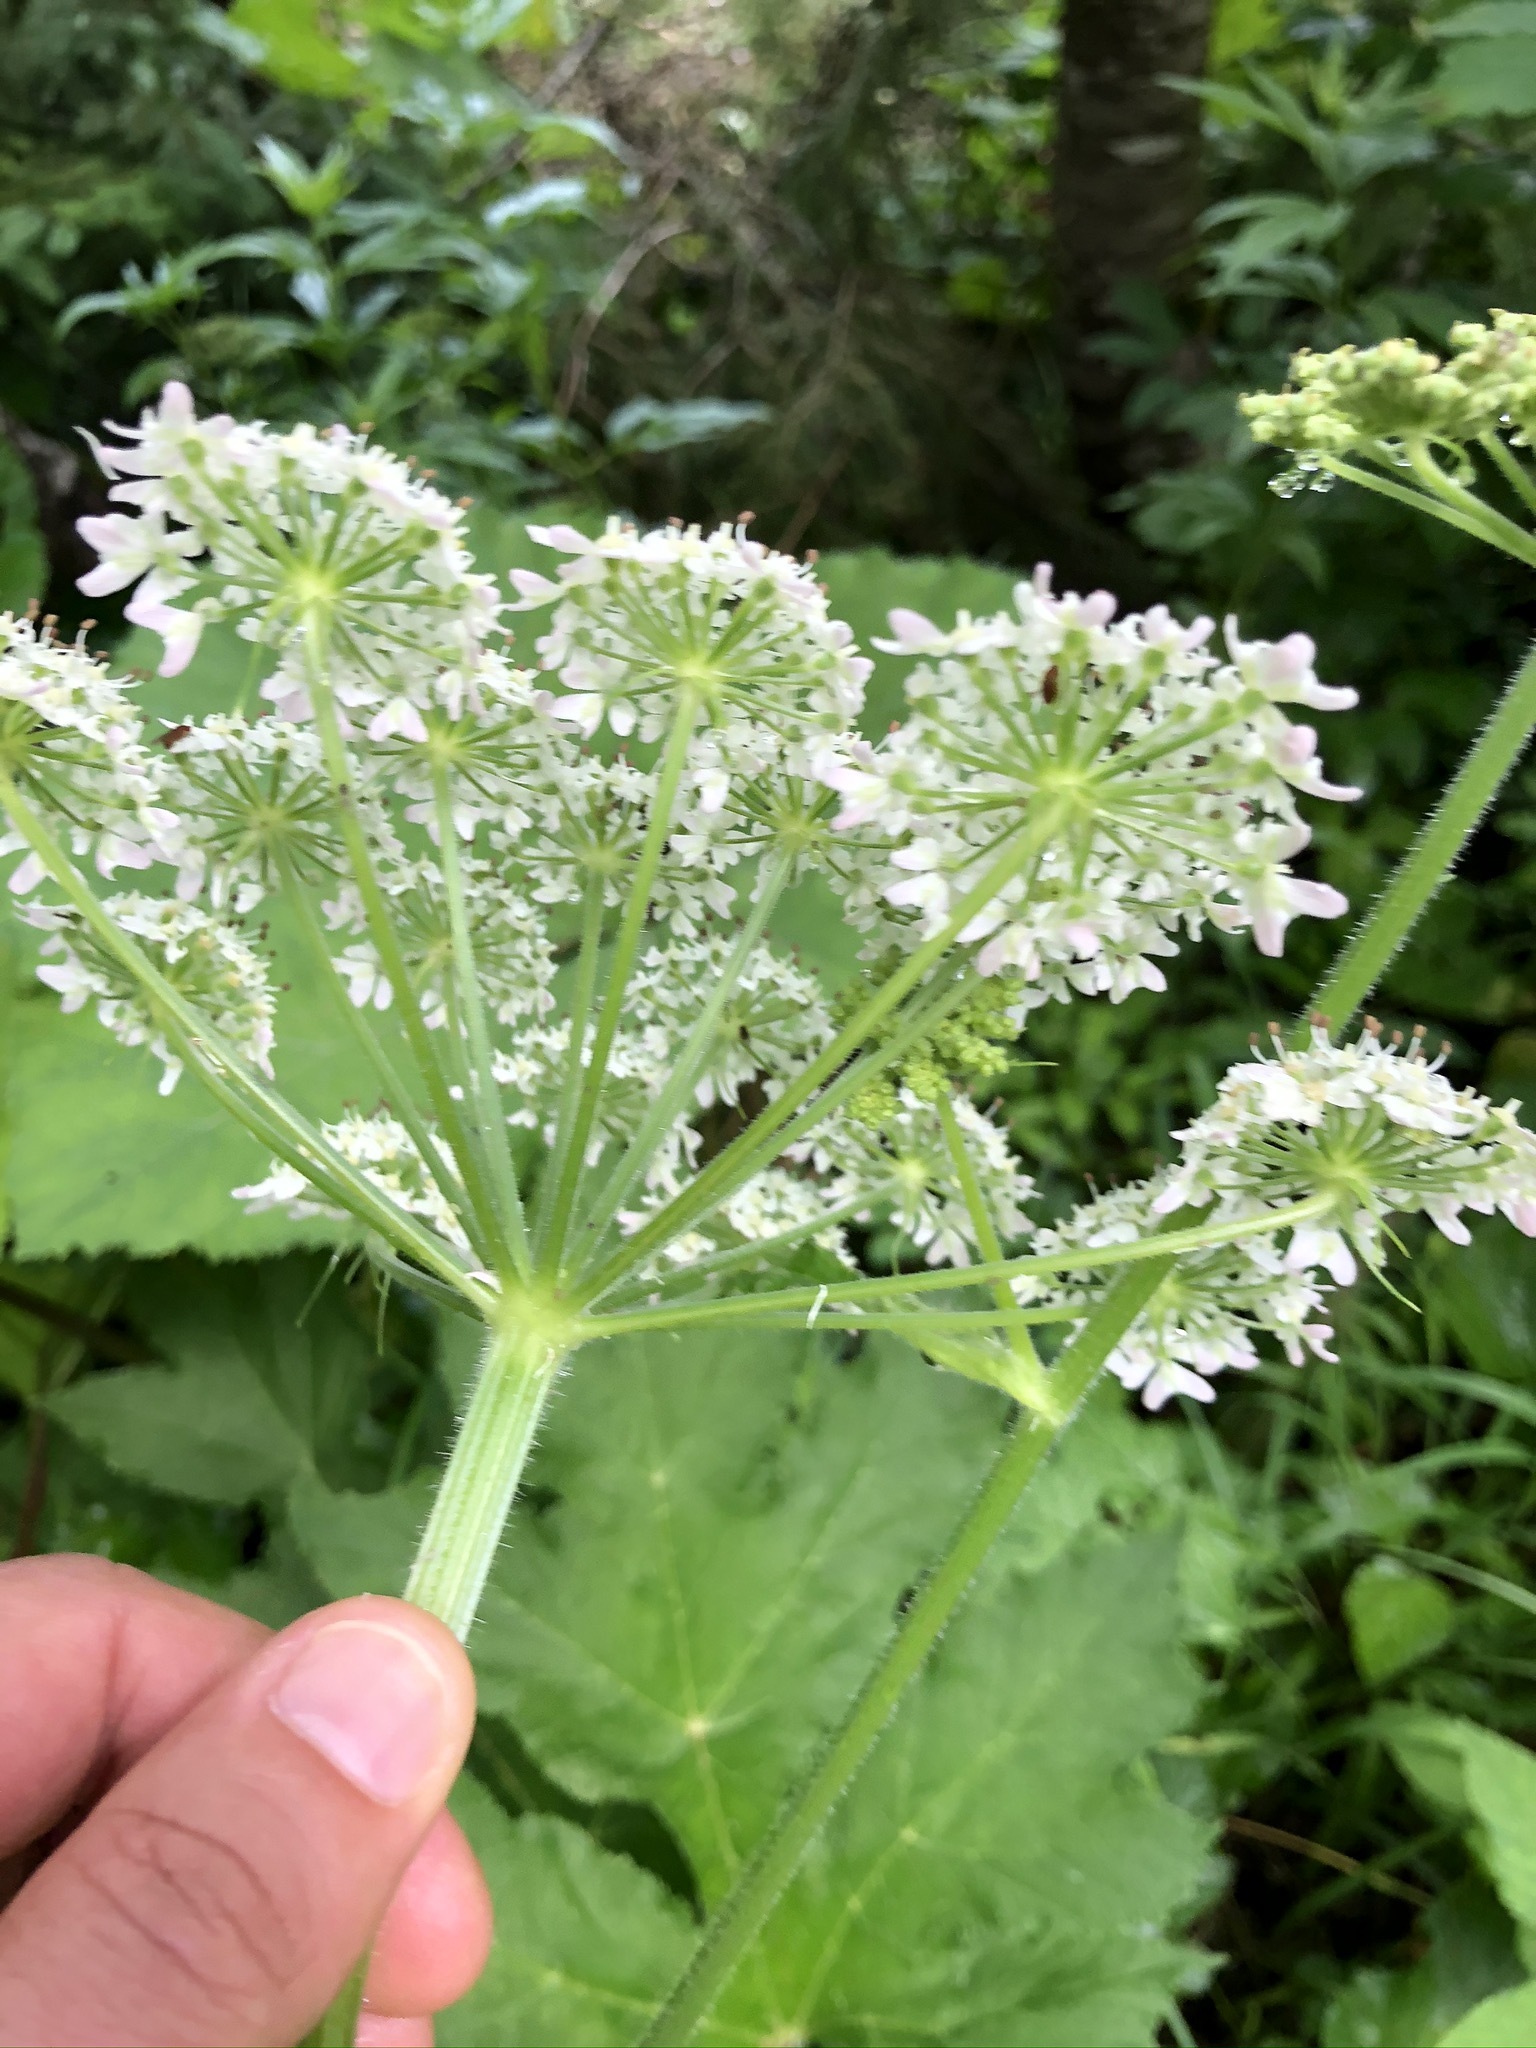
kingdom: Plantae
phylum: Tracheophyta
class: Magnoliopsida
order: Apiales
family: Apiaceae
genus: Heracleum
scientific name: Heracleum sphondylium
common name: Hogweed
